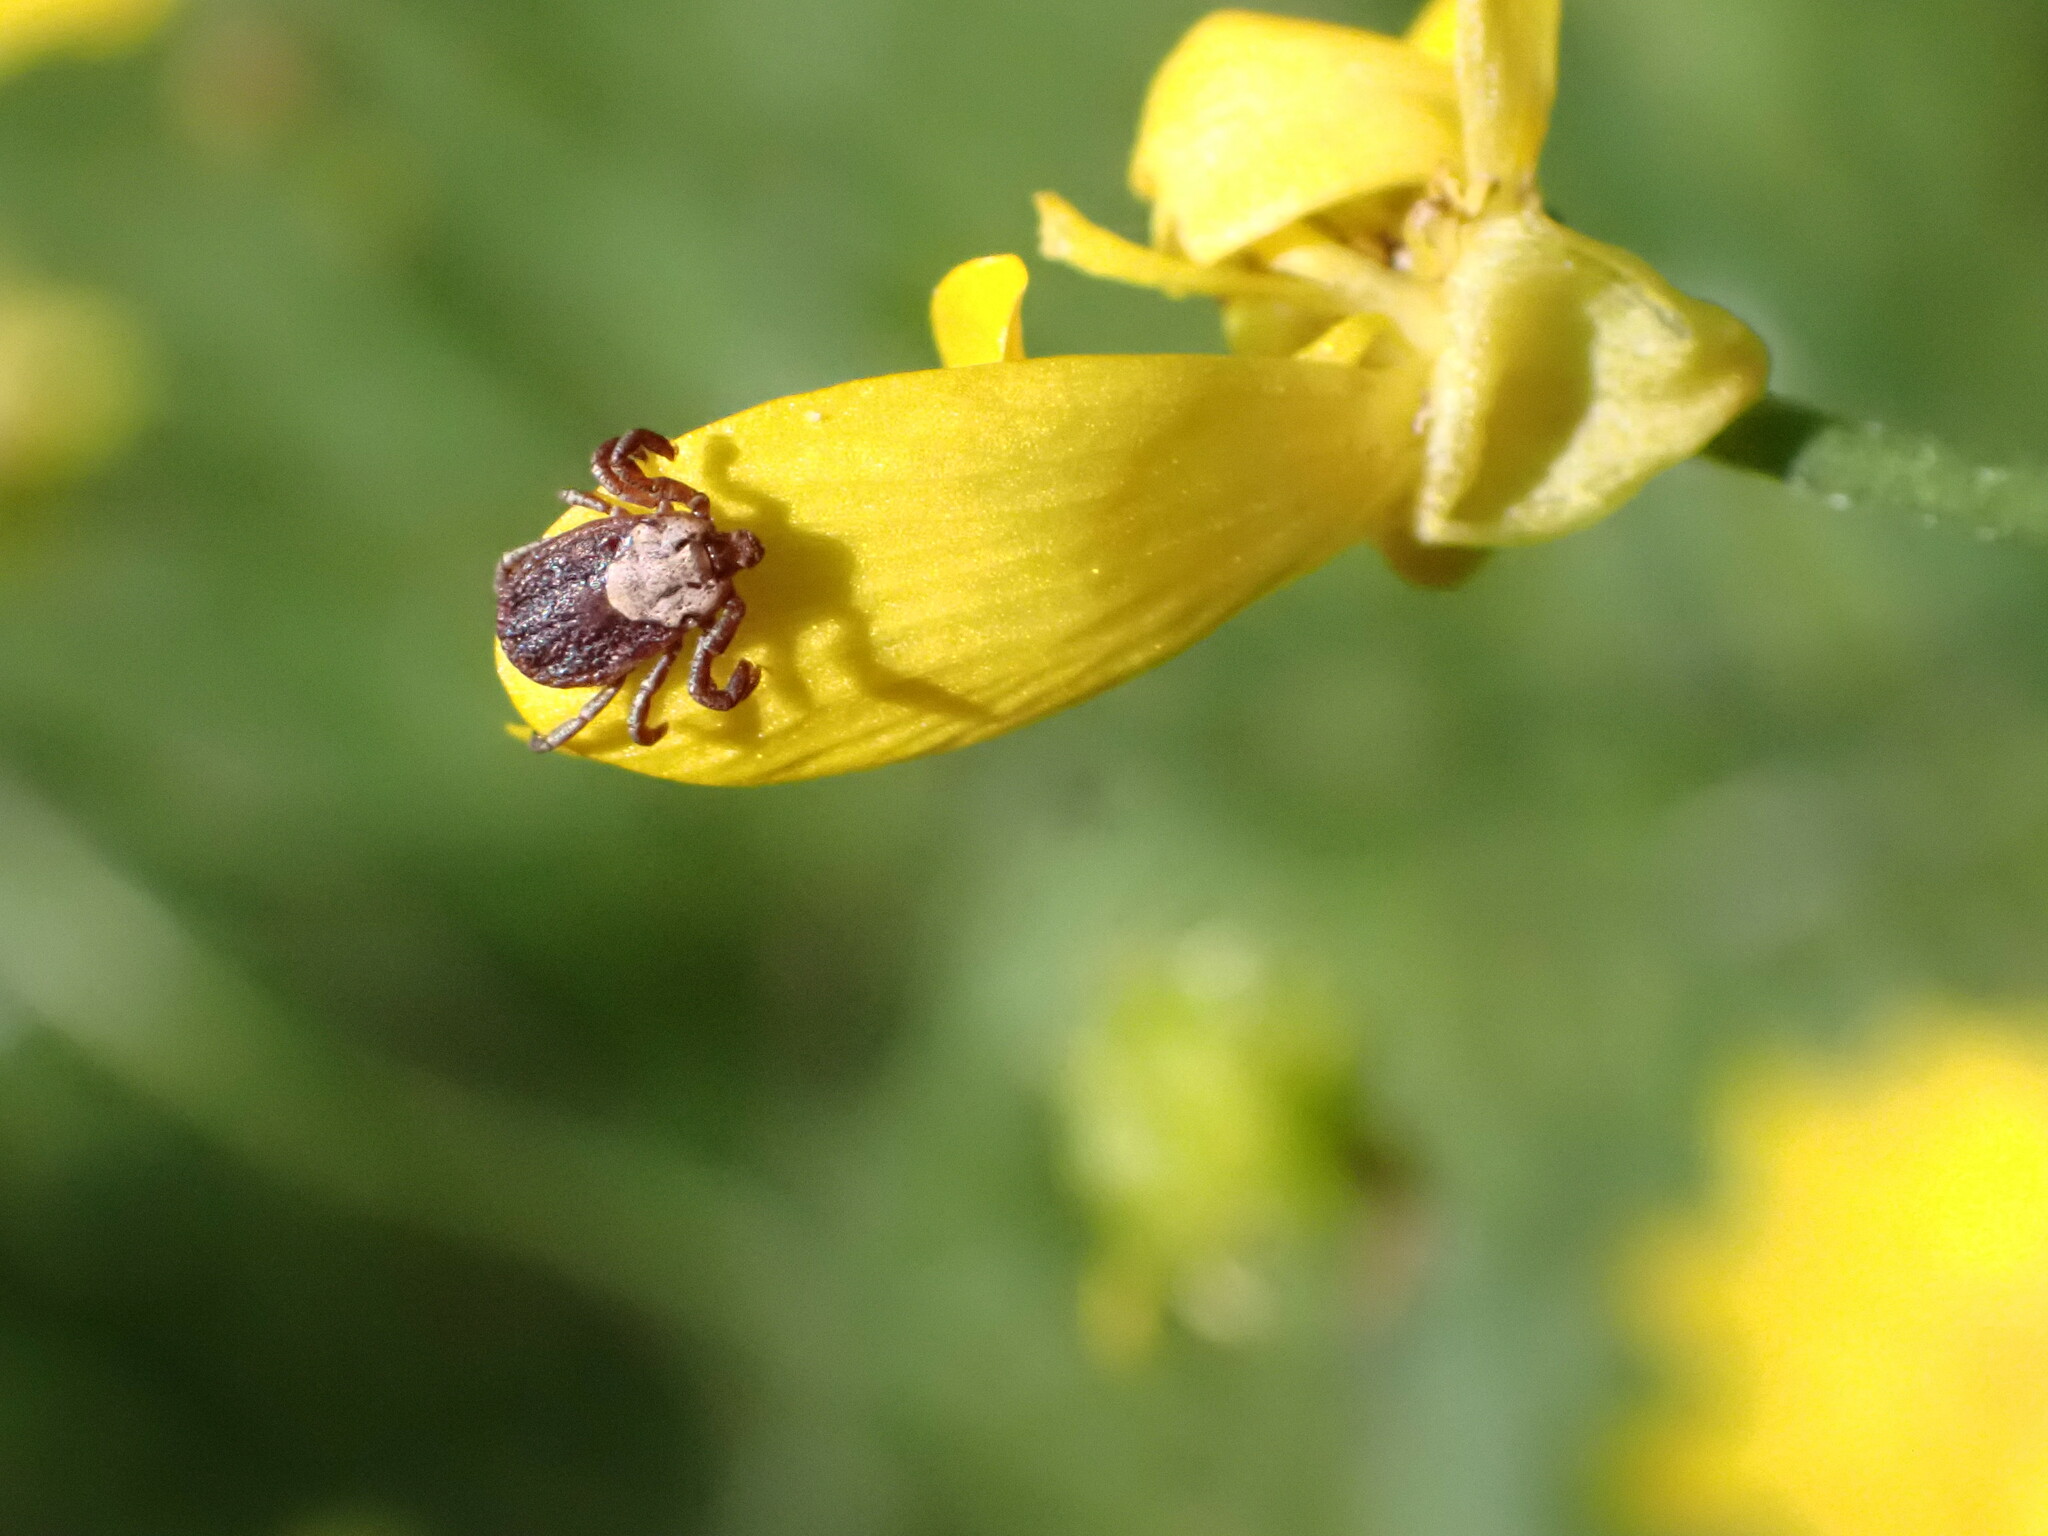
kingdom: Animalia
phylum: Arthropoda
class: Arachnida
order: Ixodida
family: Ixodidae
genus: Dermacentor
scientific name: Dermacentor occidentalis
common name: Net tick
